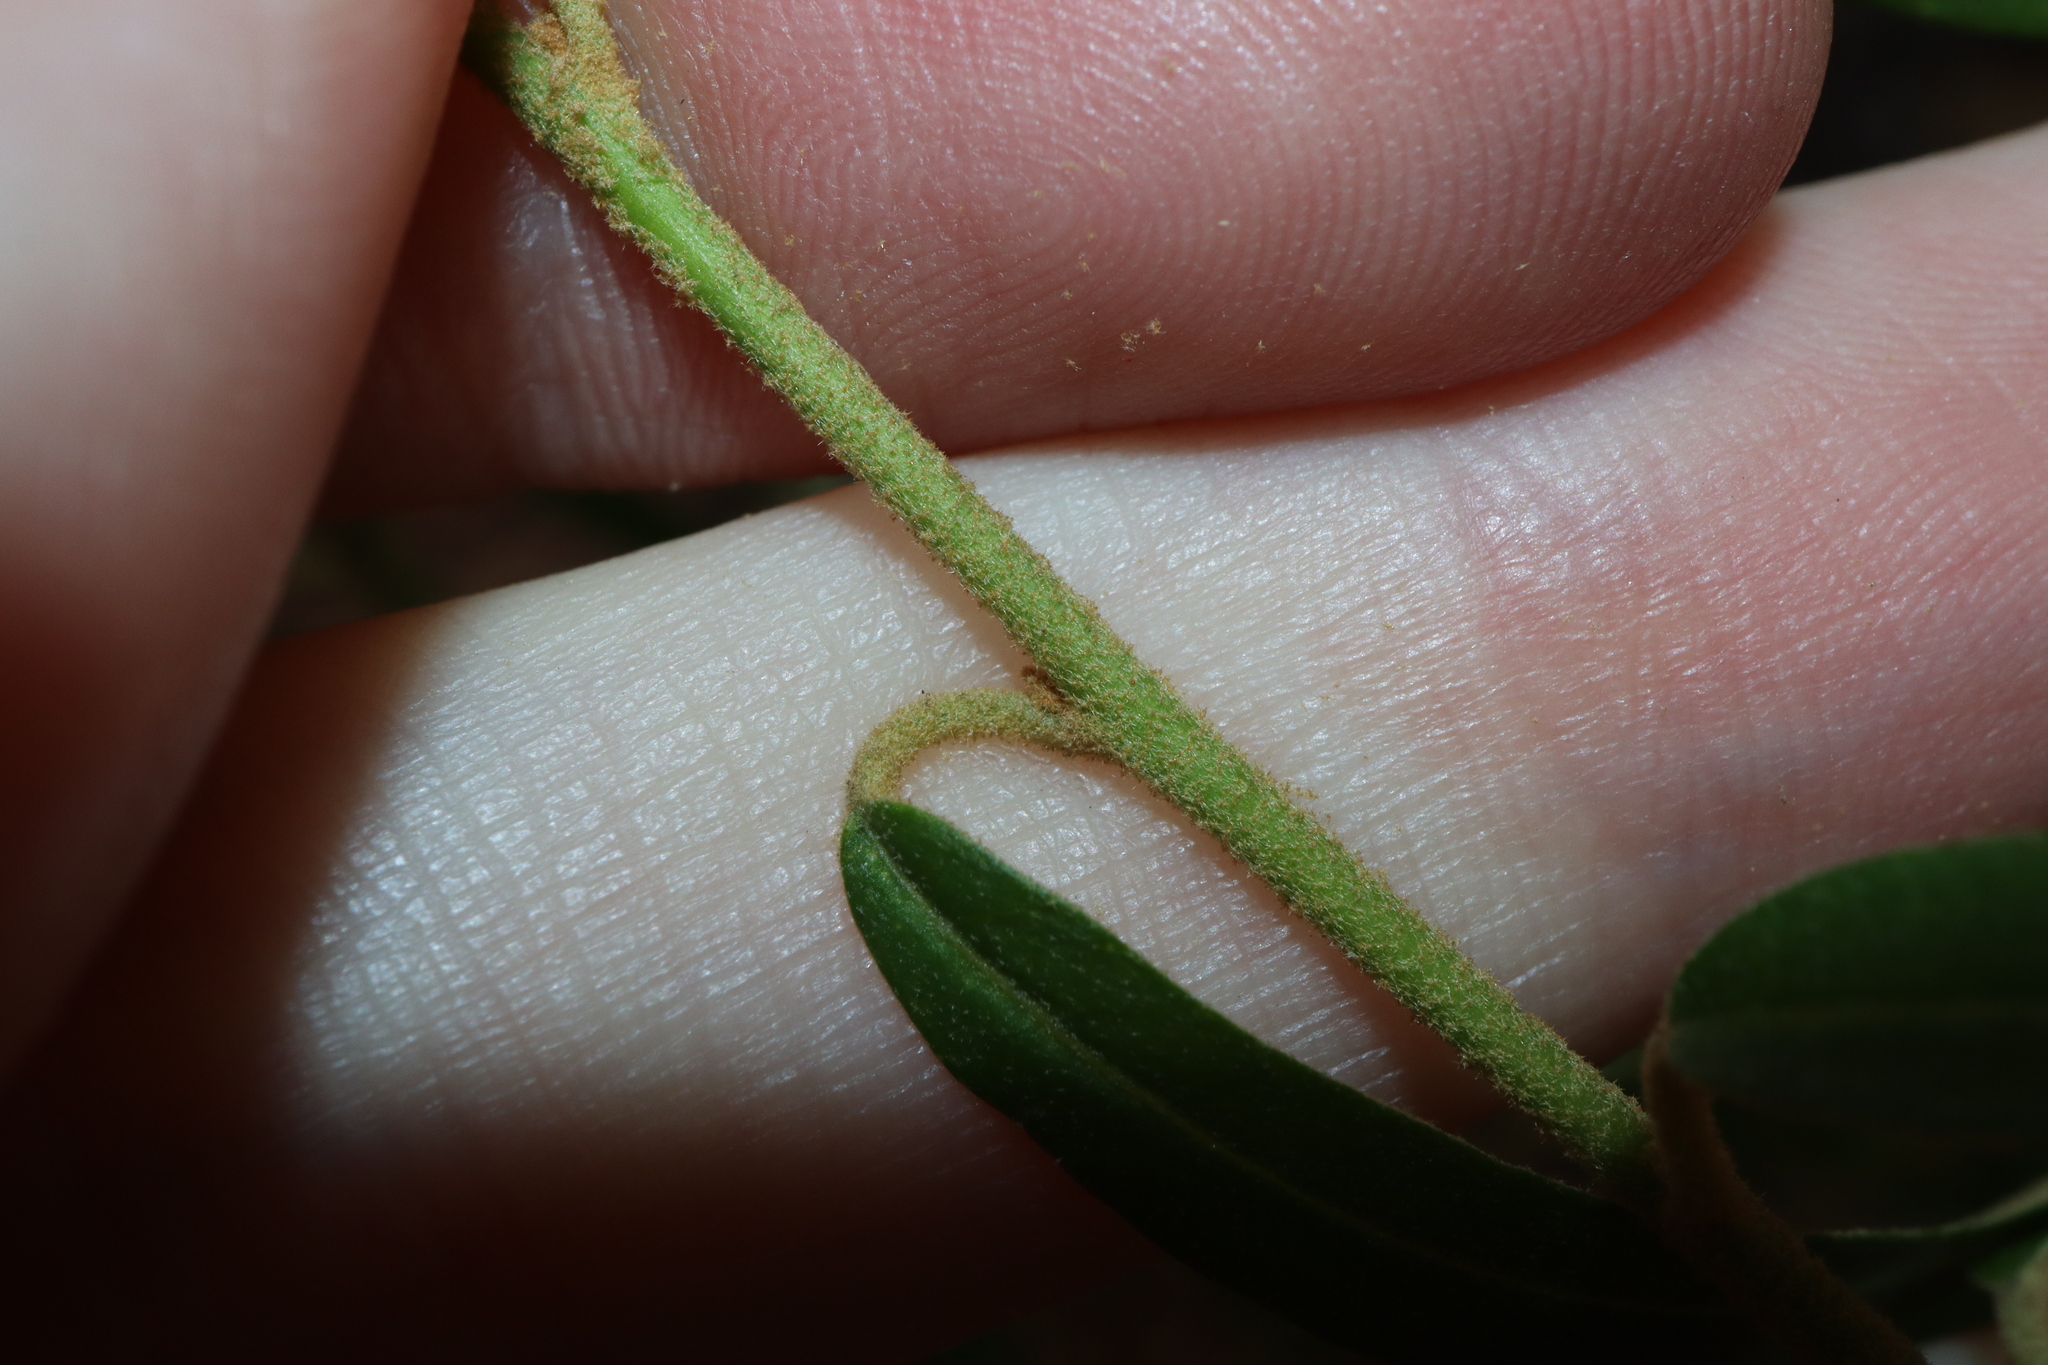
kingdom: Plantae
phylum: Tracheophyta
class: Magnoliopsida
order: Apiales
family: Araliaceae
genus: Astrotricha
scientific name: Astrotricha longifolia
